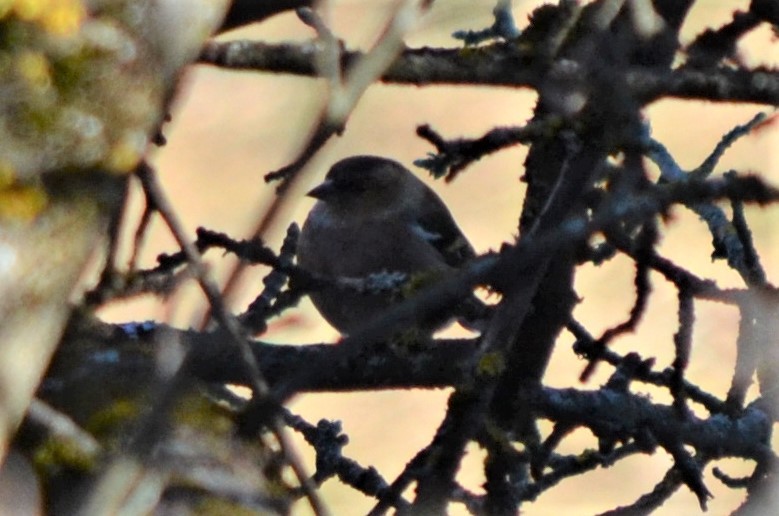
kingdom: Animalia
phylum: Chordata
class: Aves
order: Passeriformes
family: Fringillidae
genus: Fringilla
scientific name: Fringilla coelebs
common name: Common chaffinch
